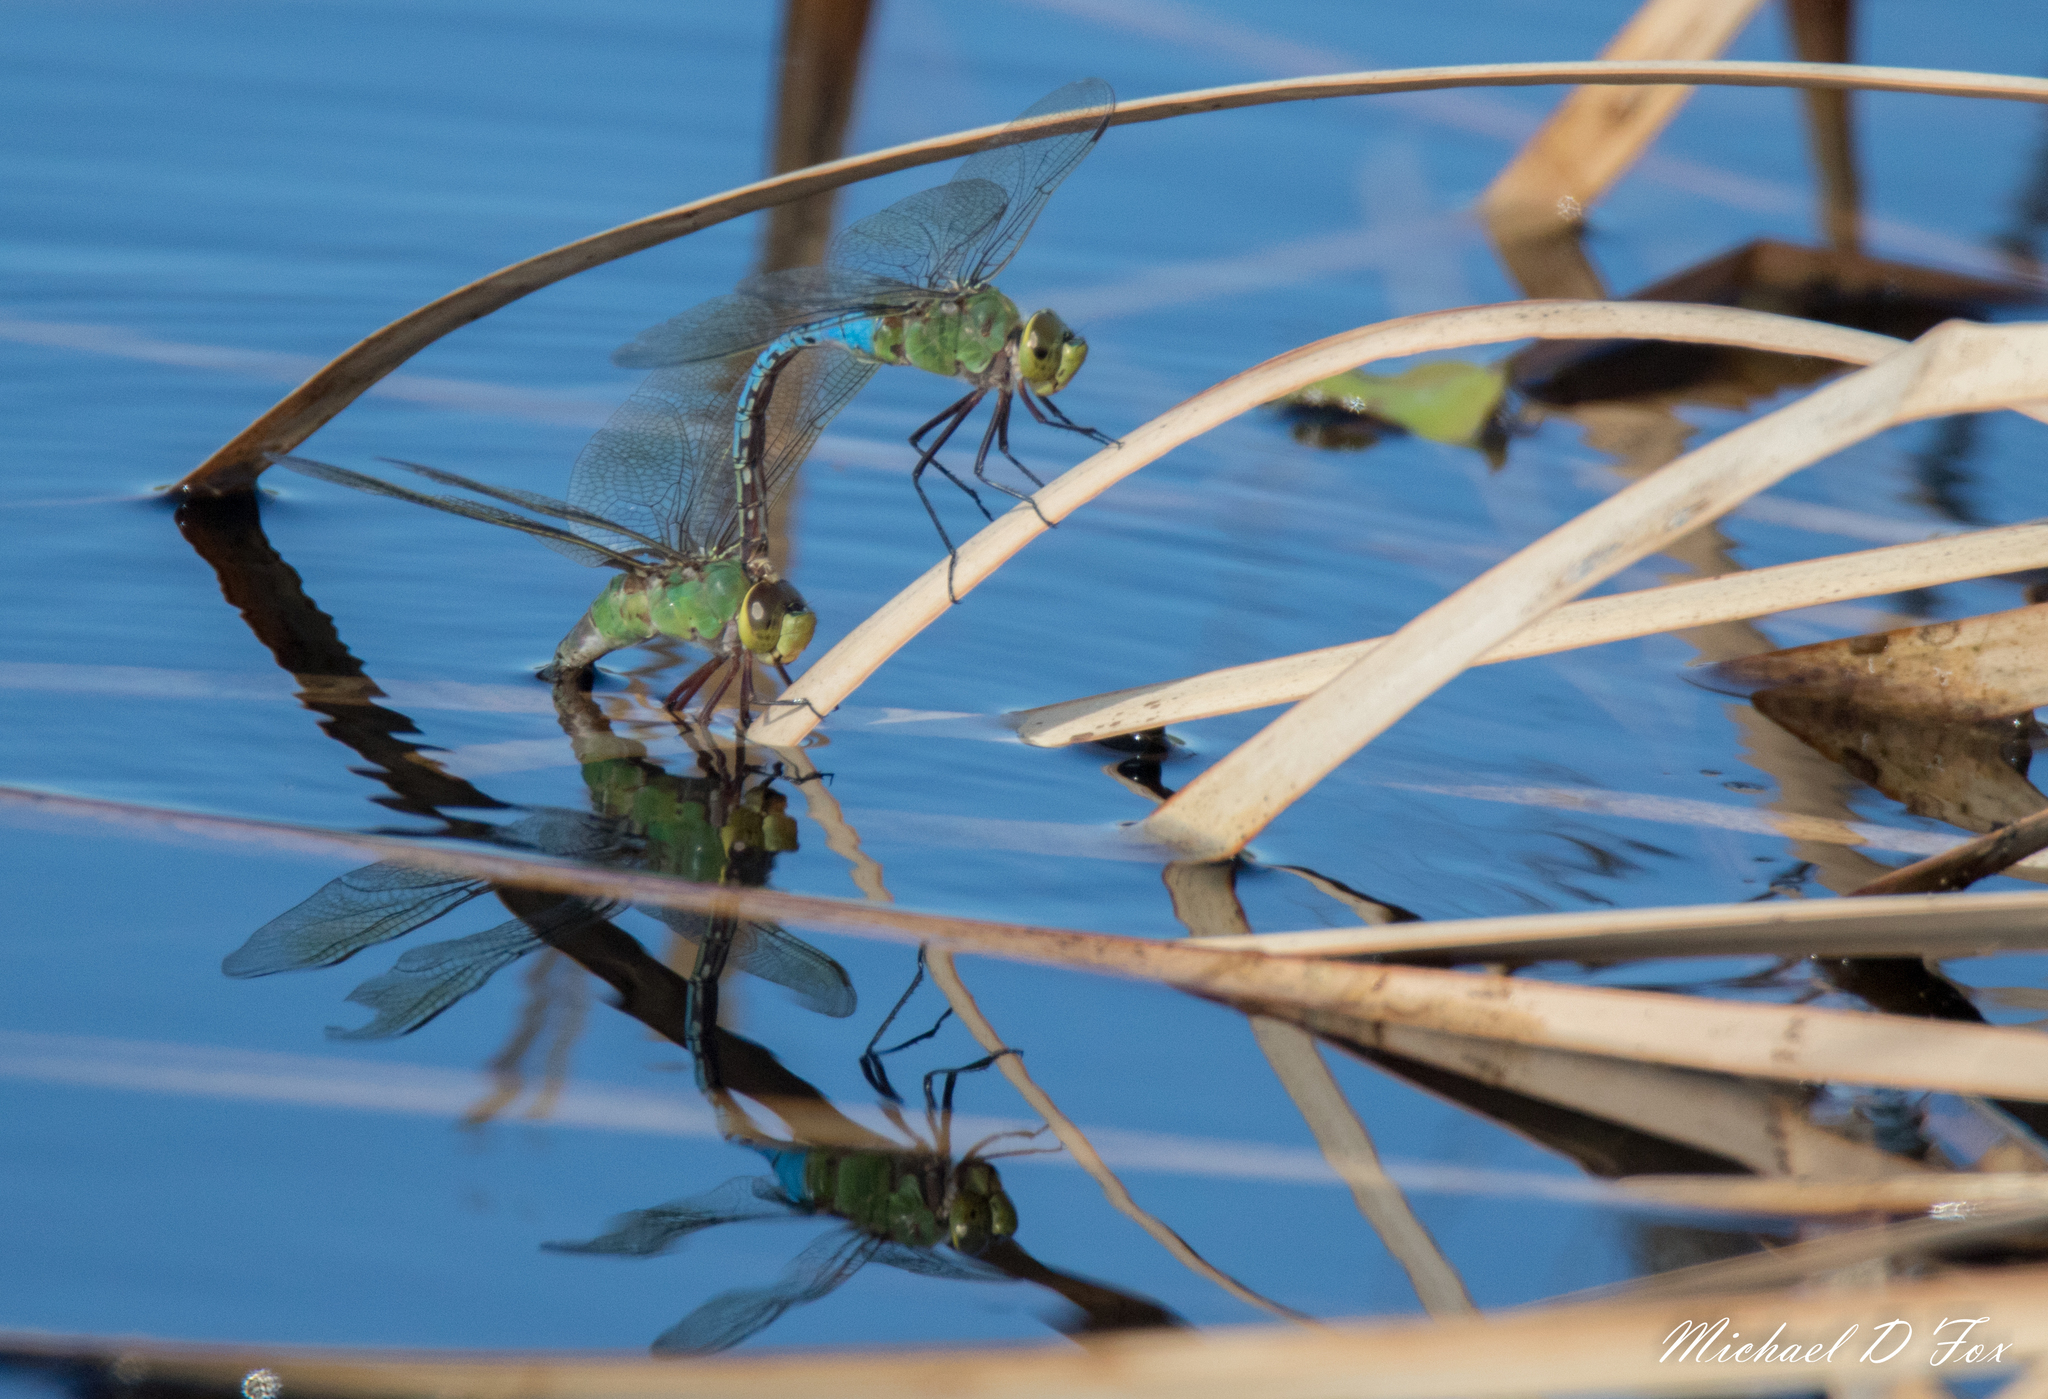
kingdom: Animalia
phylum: Arthropoda
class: Insecta
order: Odonata
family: Aeshnidae
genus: Anax
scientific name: Anax junius
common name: Common green darner
